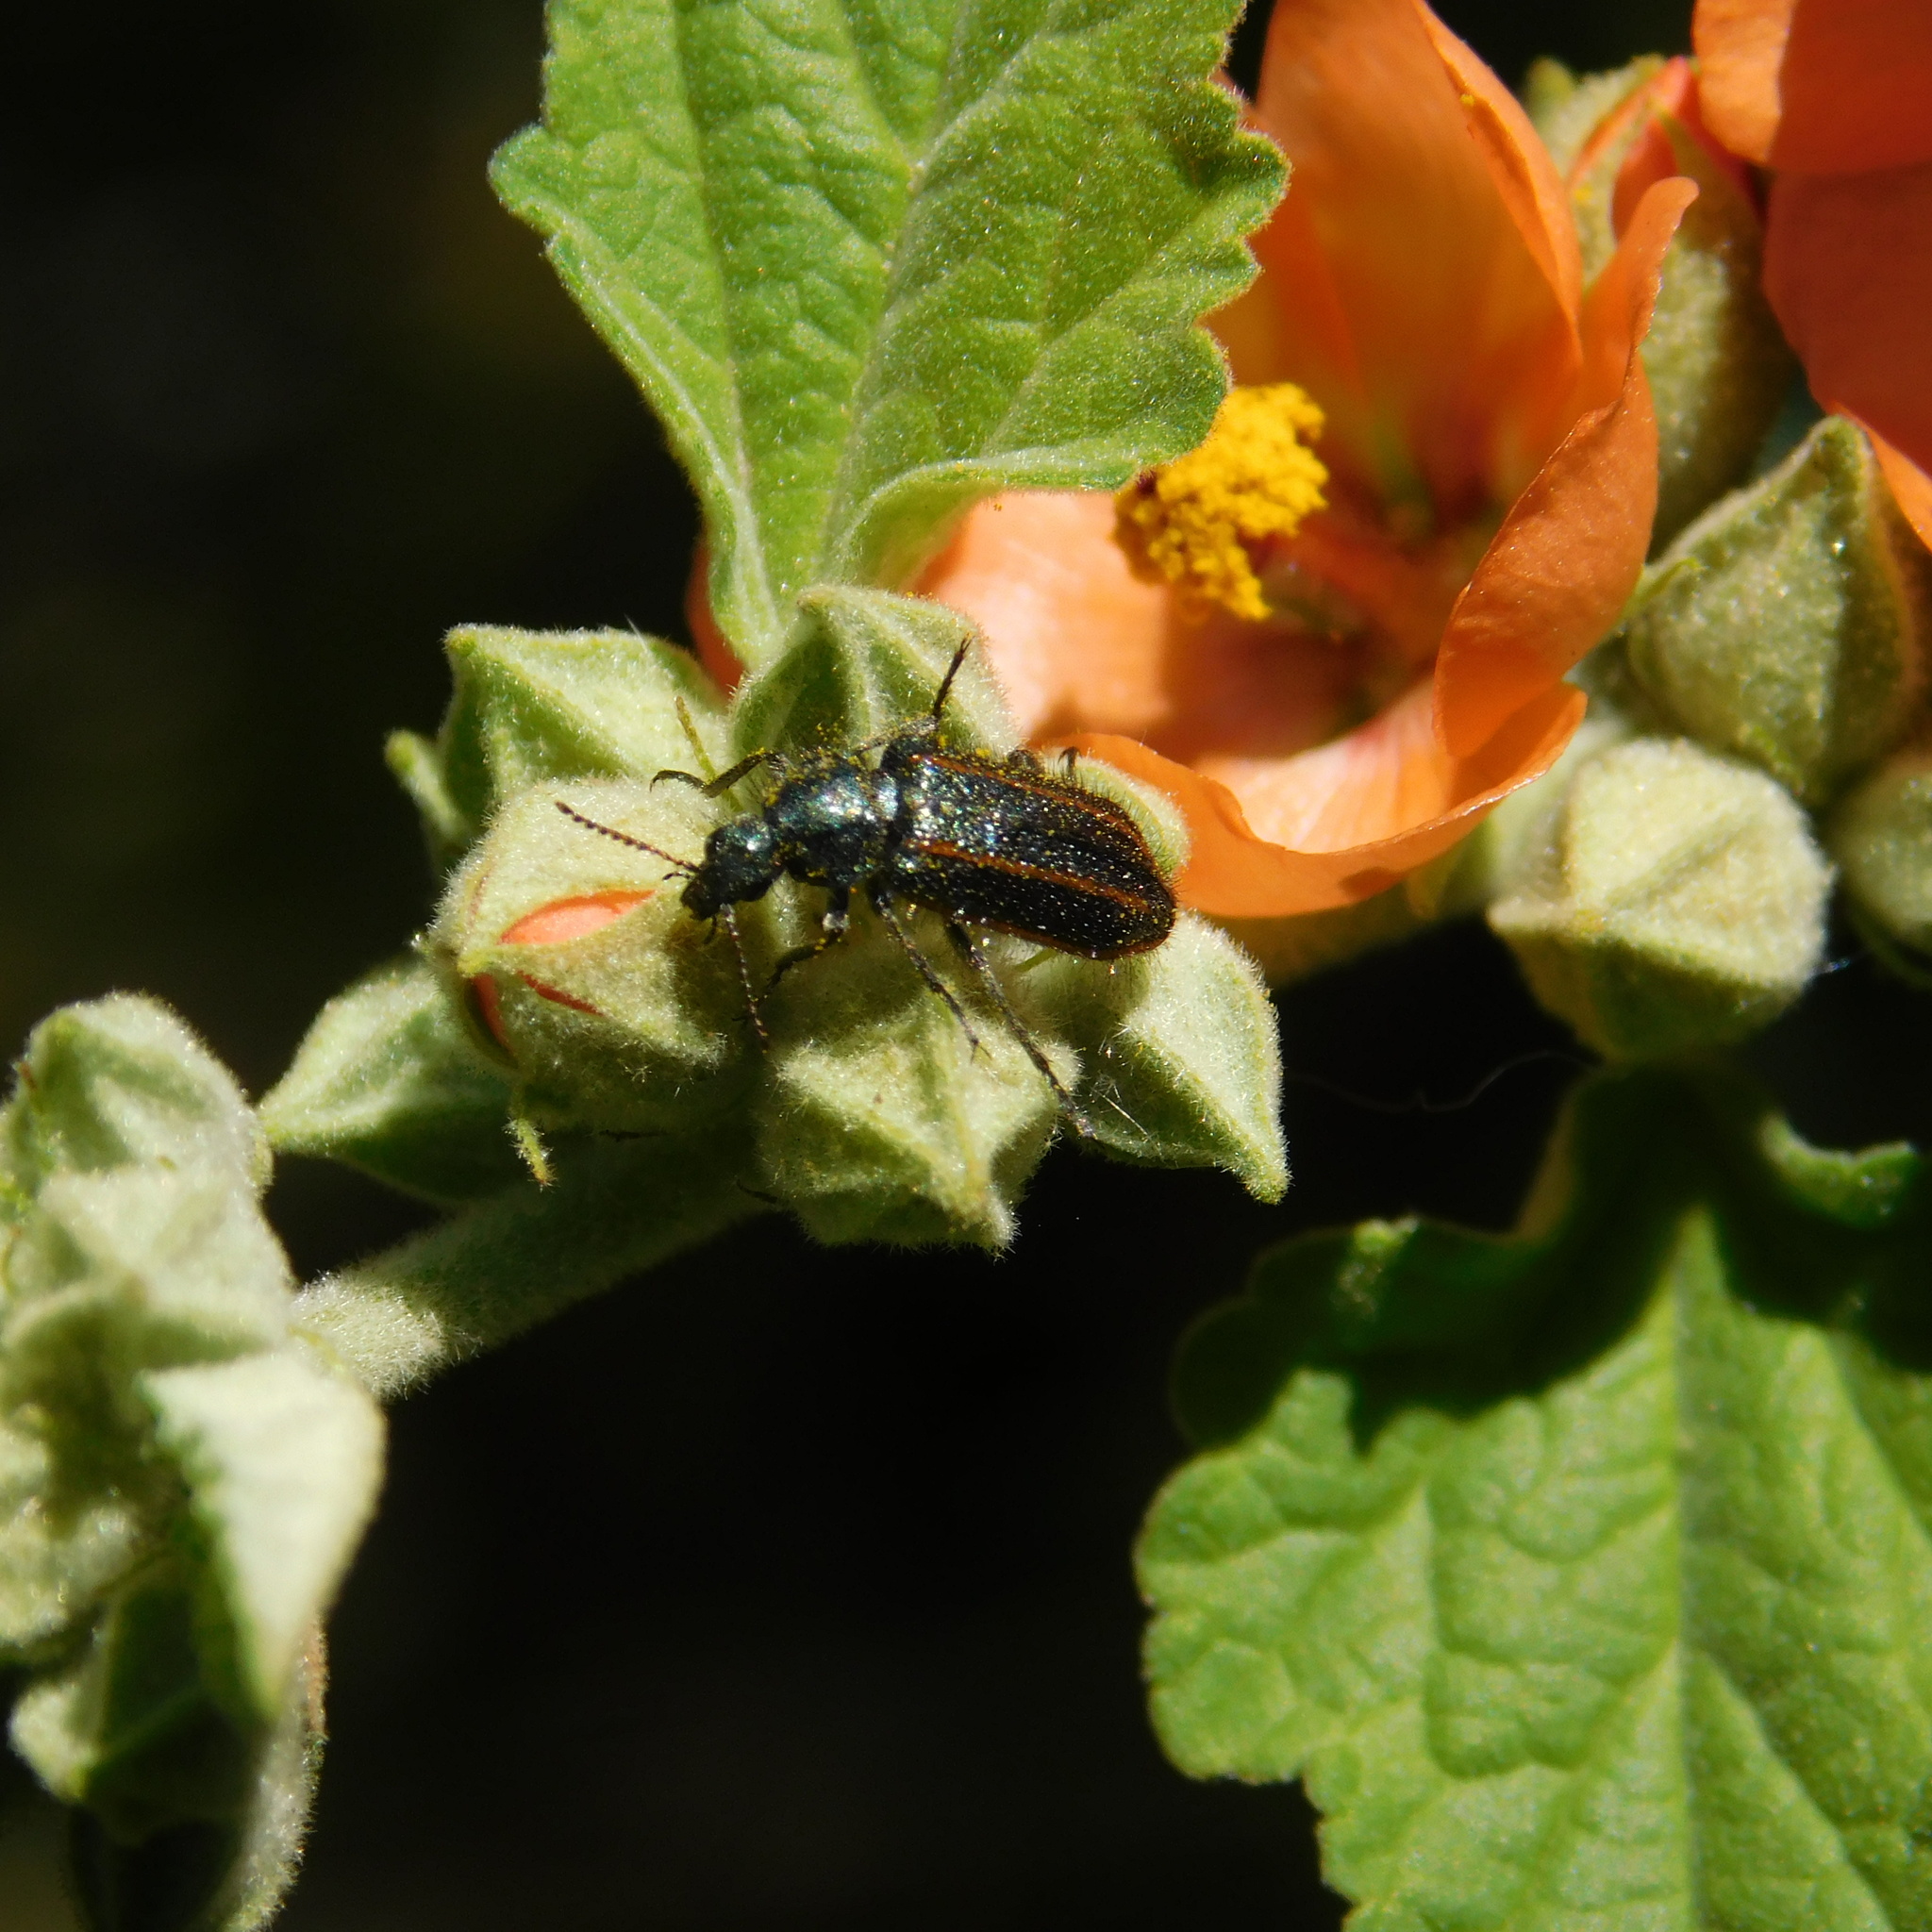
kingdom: Animalia
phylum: Arthropoda
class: Insecta
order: Coleoptera
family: Melyridae
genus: Astylus
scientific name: Astylus
